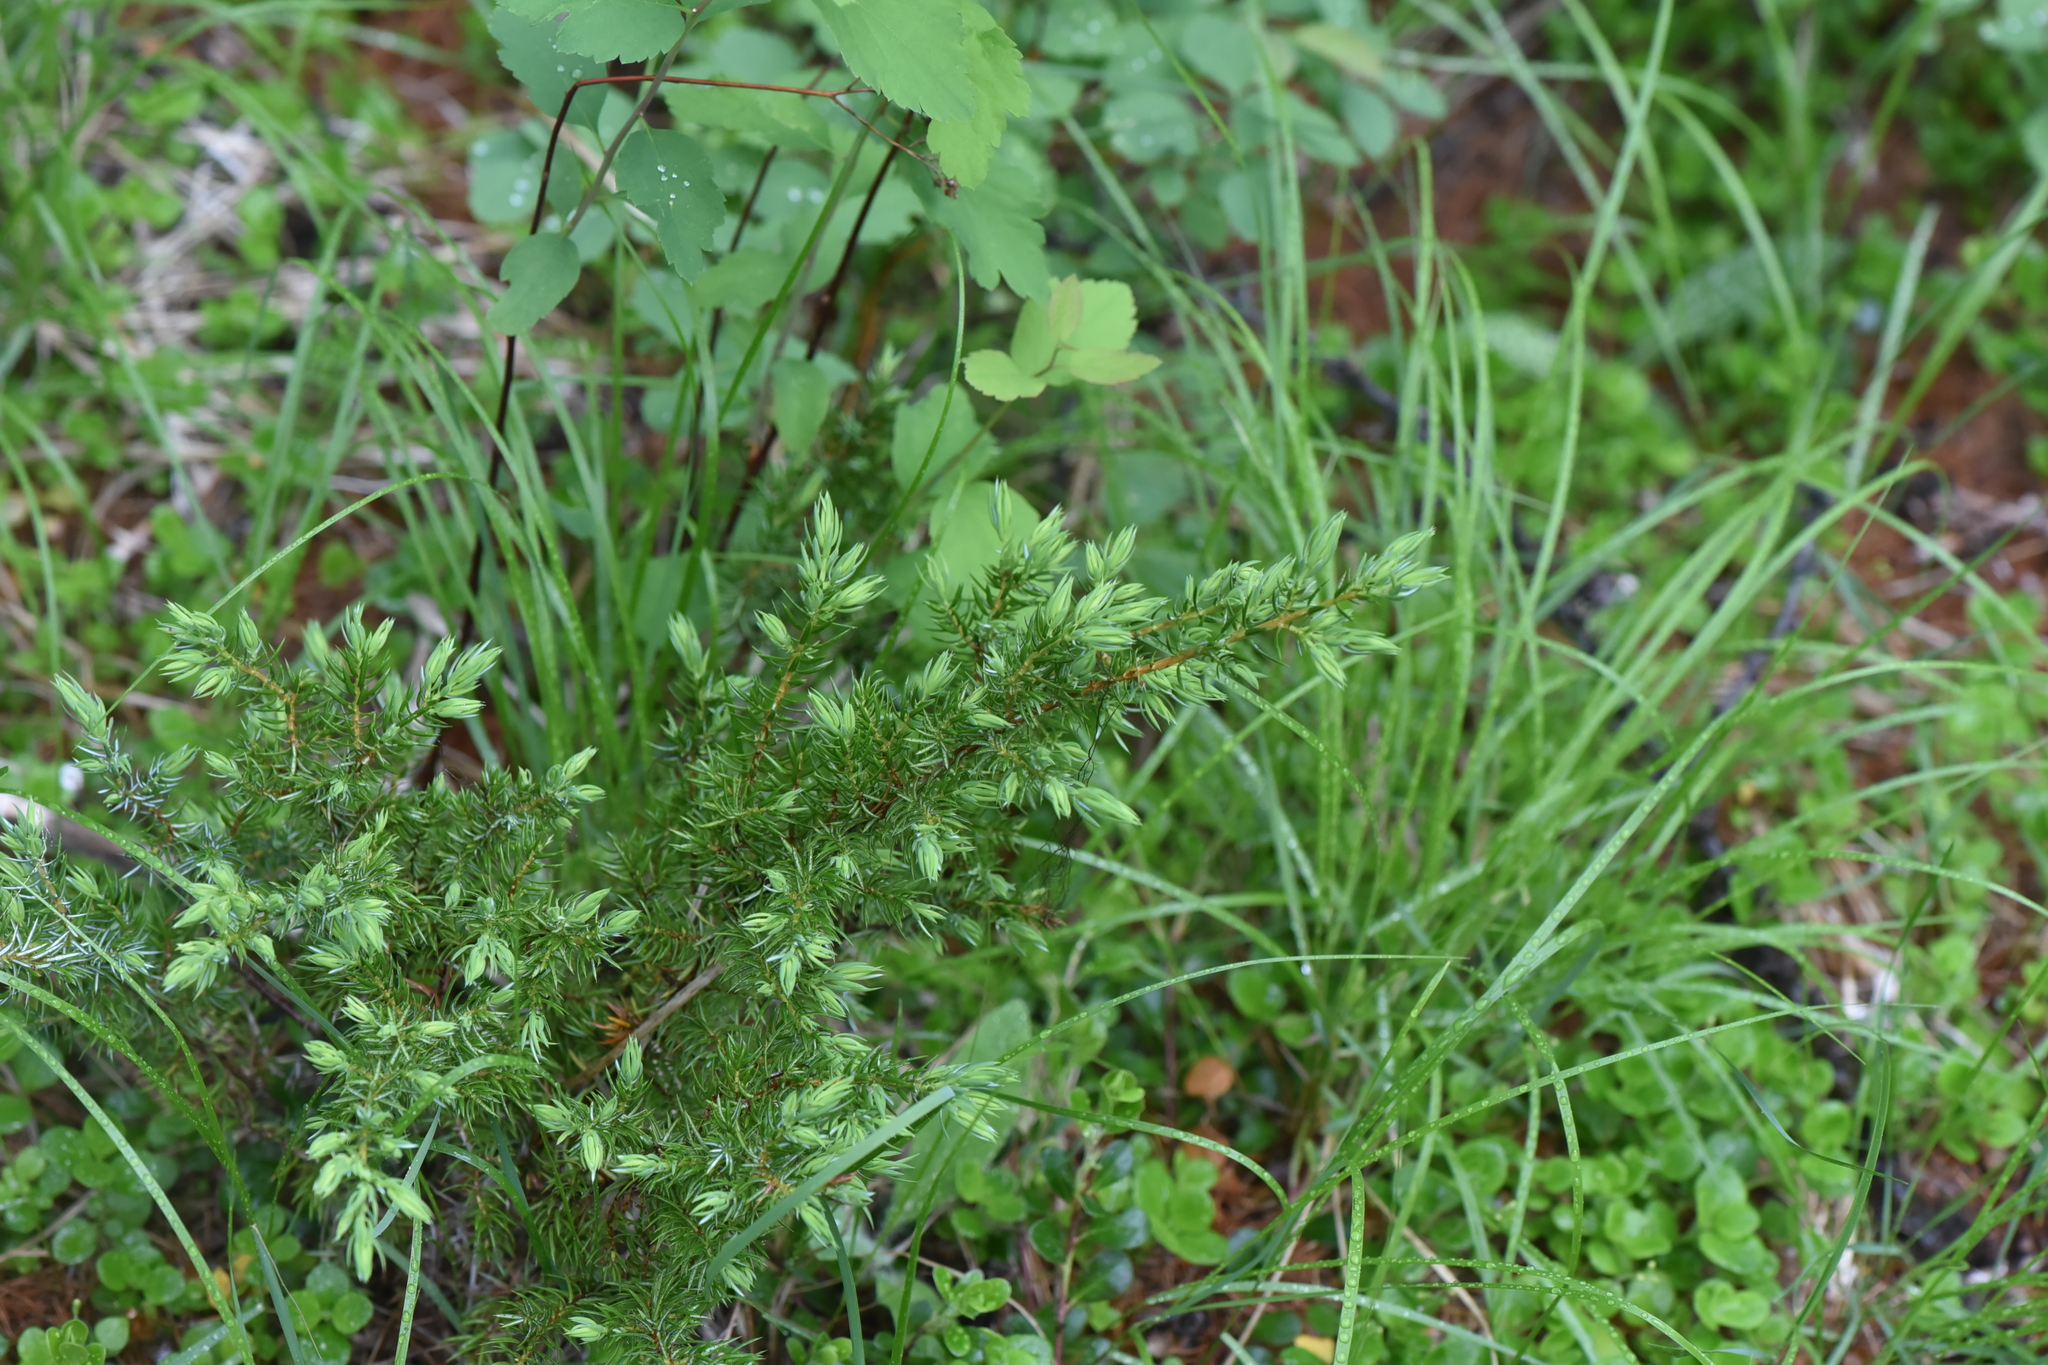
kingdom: Plantae
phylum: Tracheophyta
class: Pinopsida
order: Pinales
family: Cupressaceae
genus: Juniperus
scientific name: Juniperus communis
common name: Common juniper
